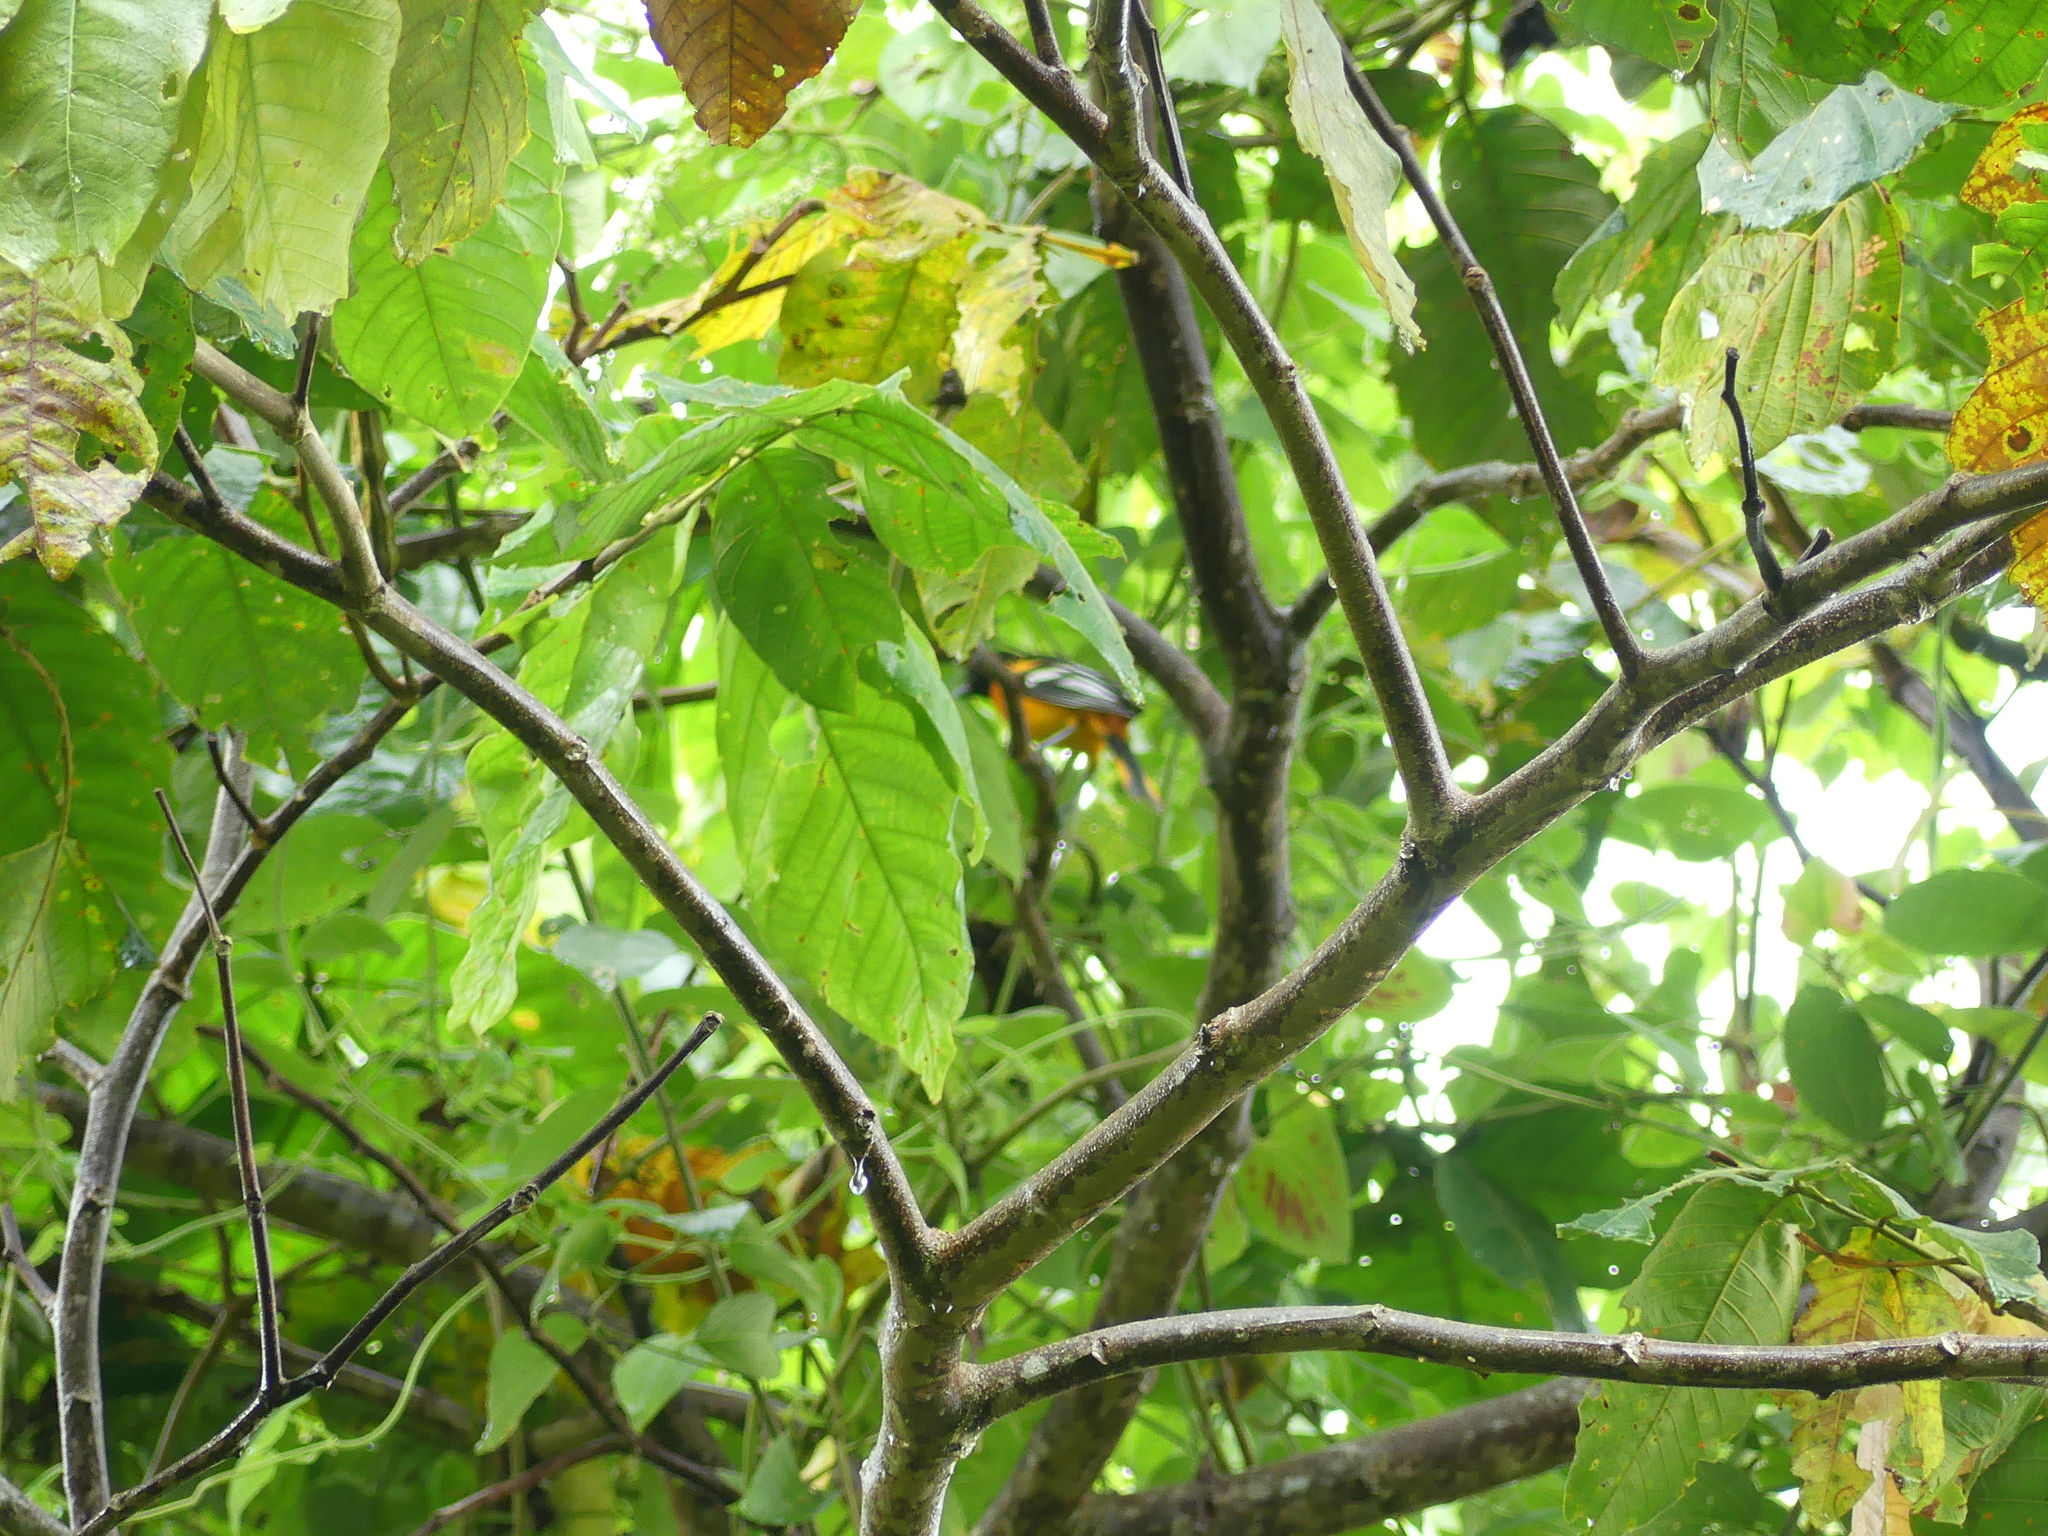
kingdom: Animalia
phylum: Chordata
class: Aves
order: Passeriformes
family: Icteridae
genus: Icterus
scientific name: Icterus galbula
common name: Baltimore oriole
